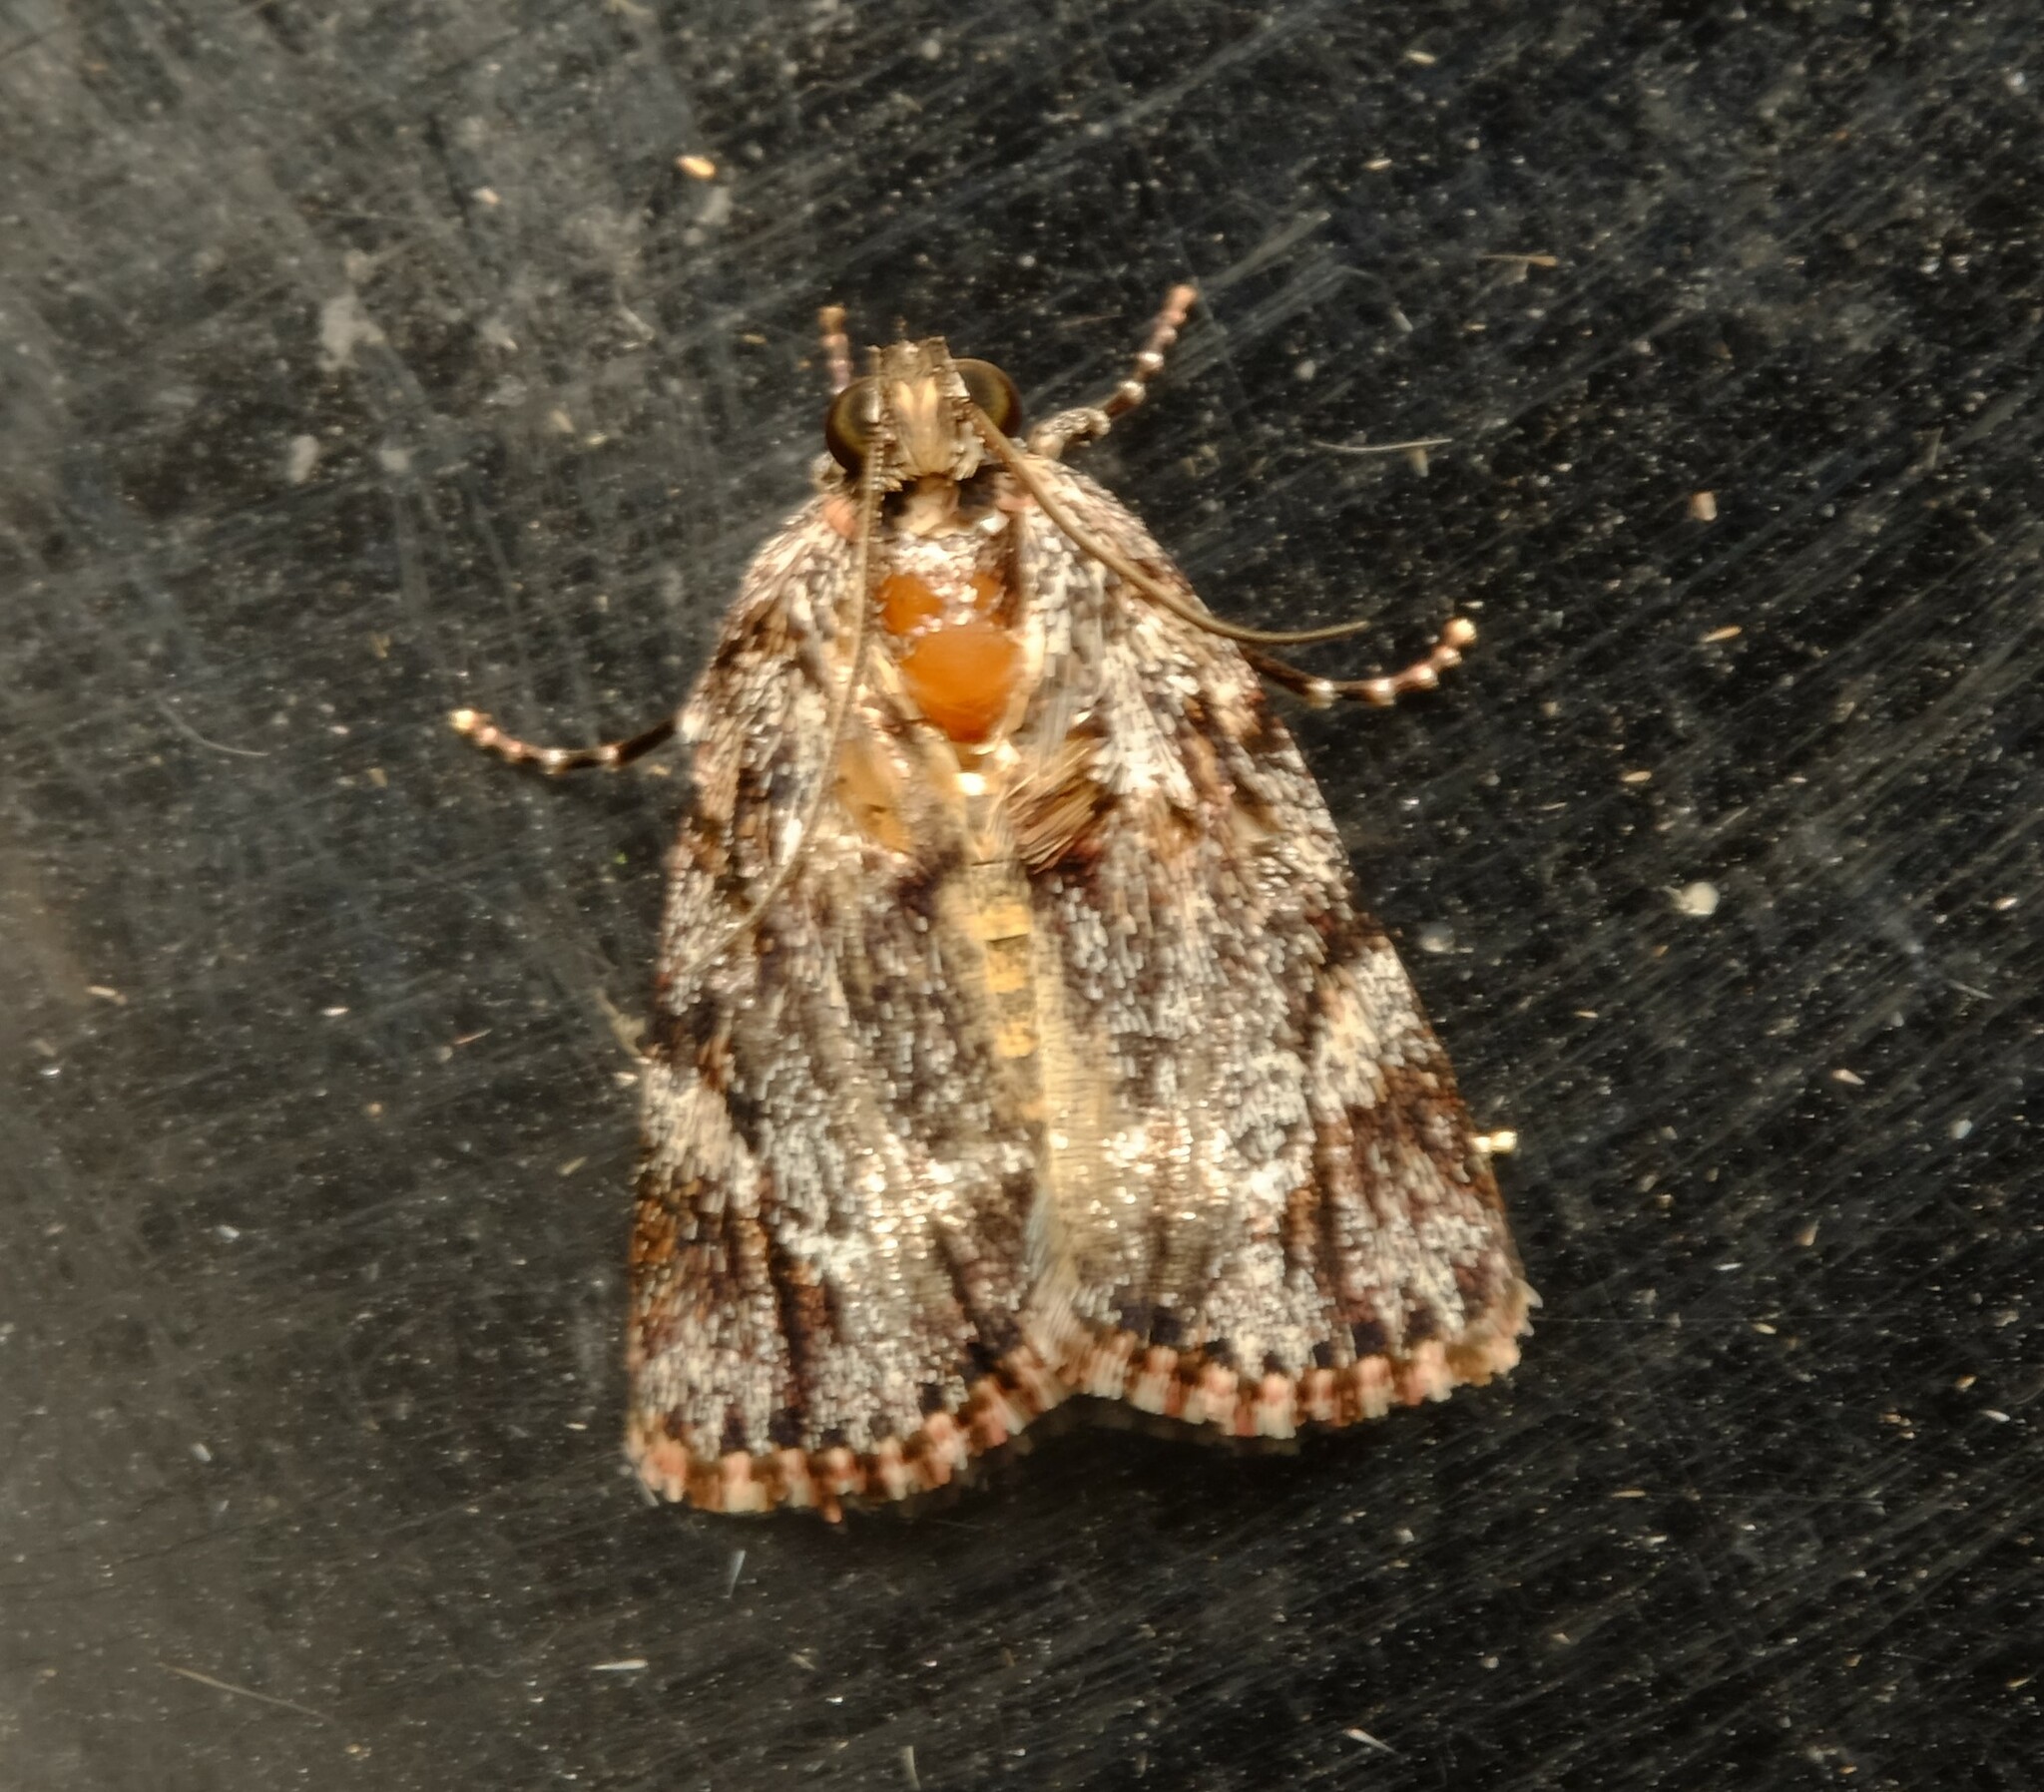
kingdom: Animalia
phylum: Arthropoda
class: Insecta
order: Lepidoptera
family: Pyralidae
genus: Spectrotrota
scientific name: Spectrotrota fimbrialis
